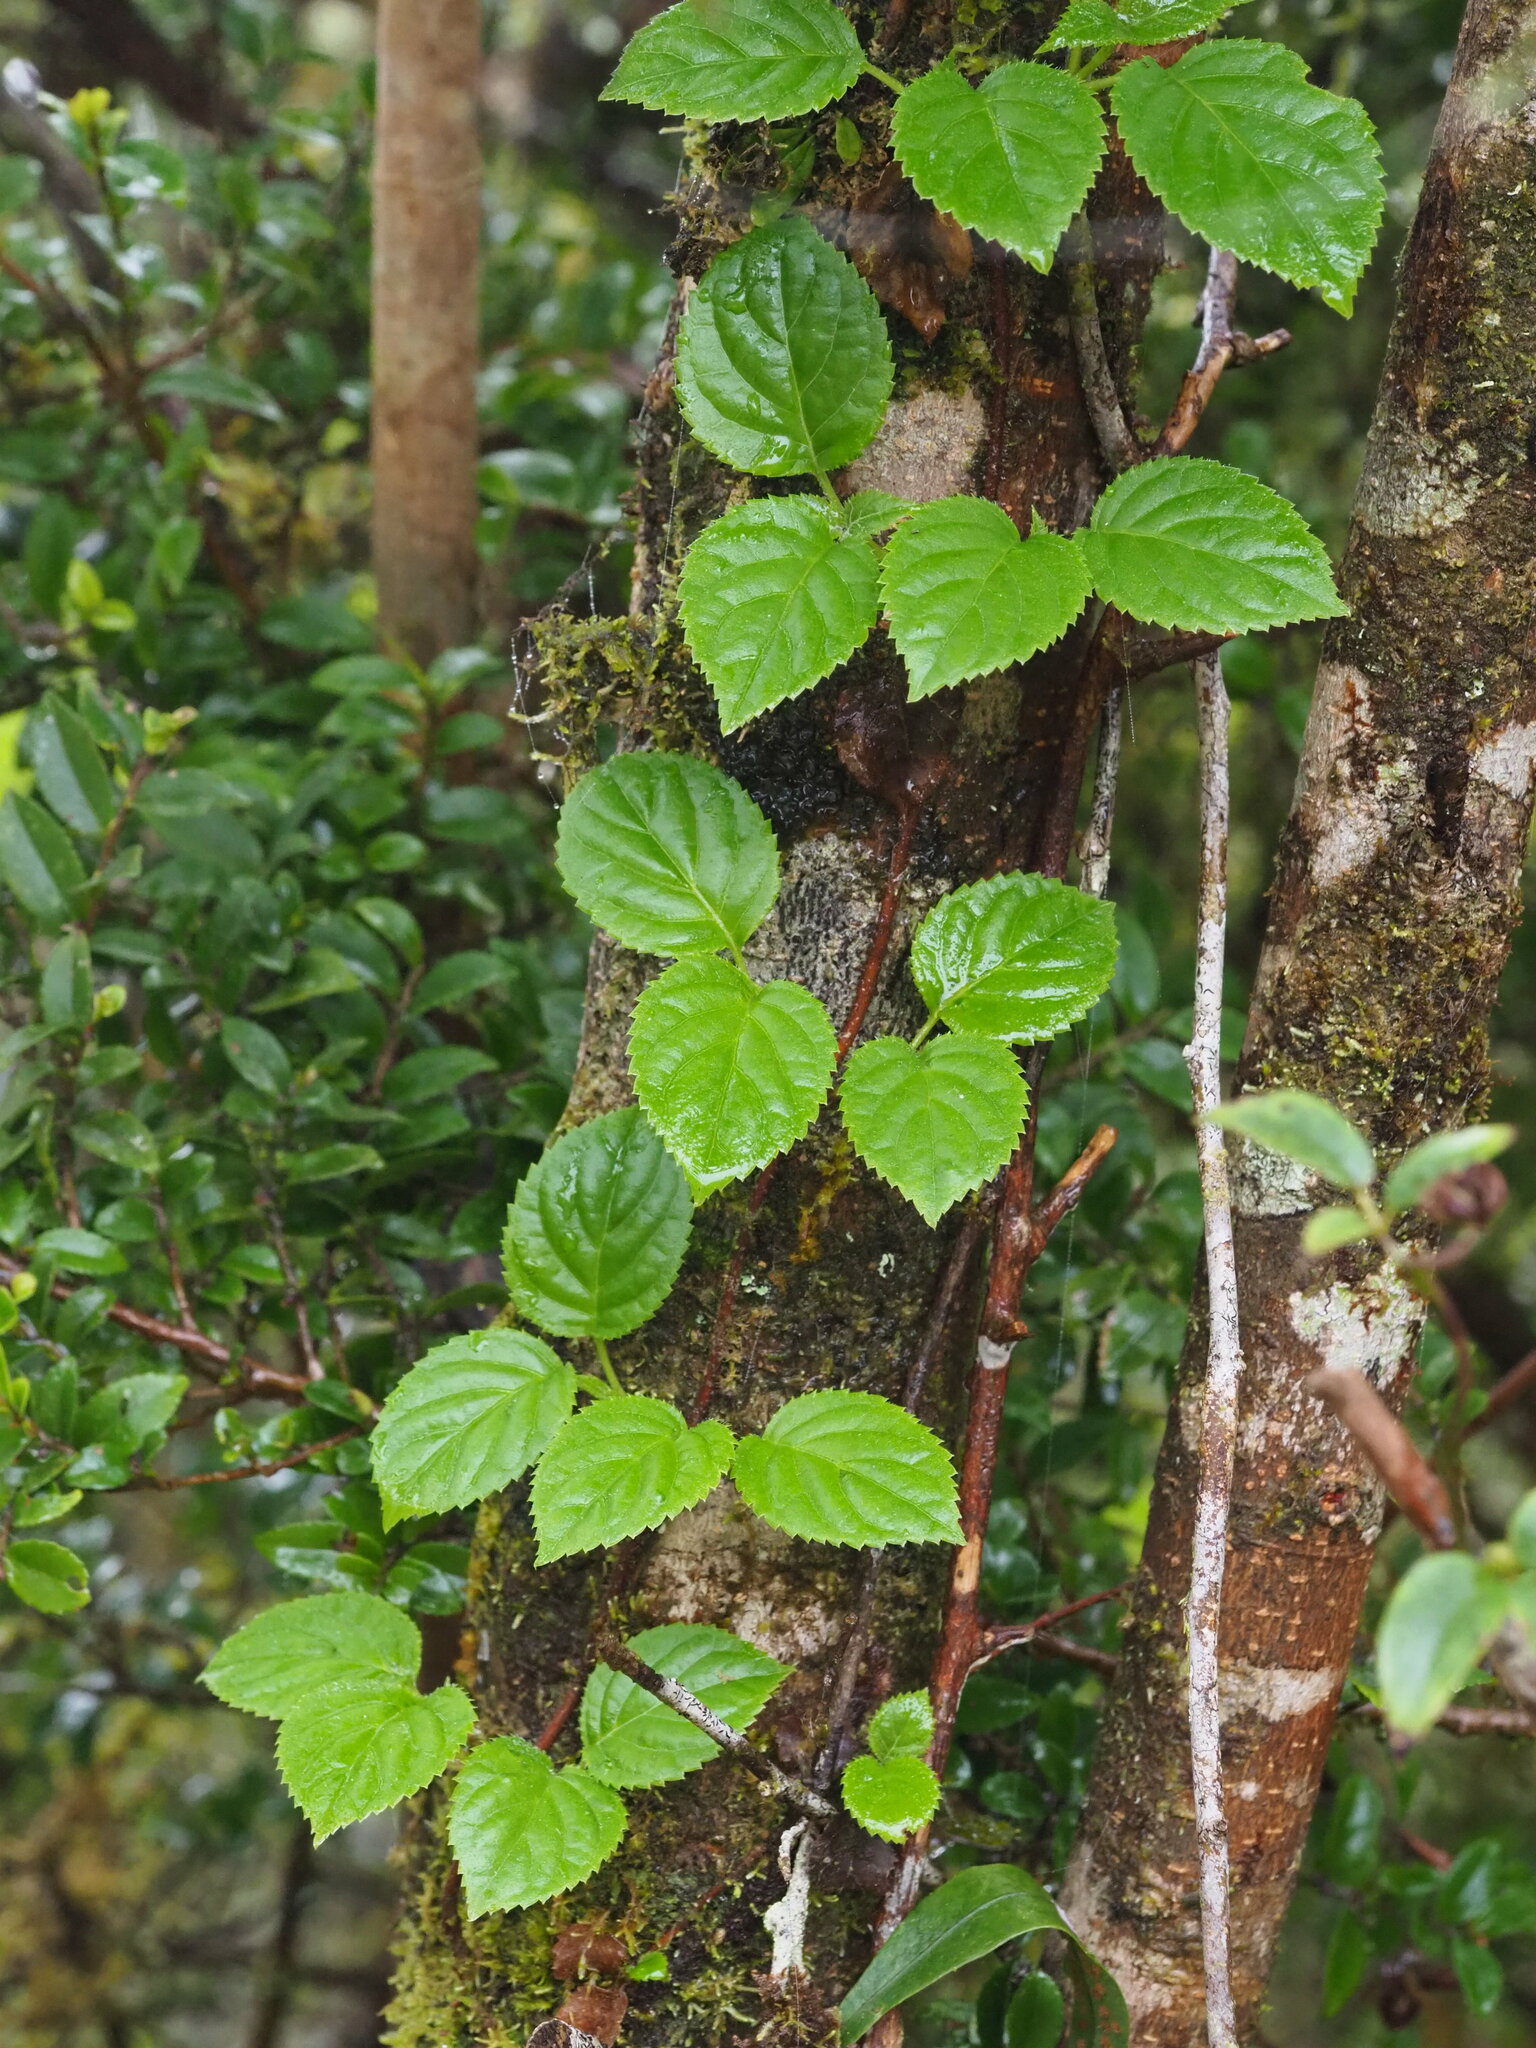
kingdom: Plantae
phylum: Tracheophyta
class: Magnoliopsida
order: Cornales
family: Hydrangeaceae
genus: Hydrangea
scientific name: Hydrangea fauriei
